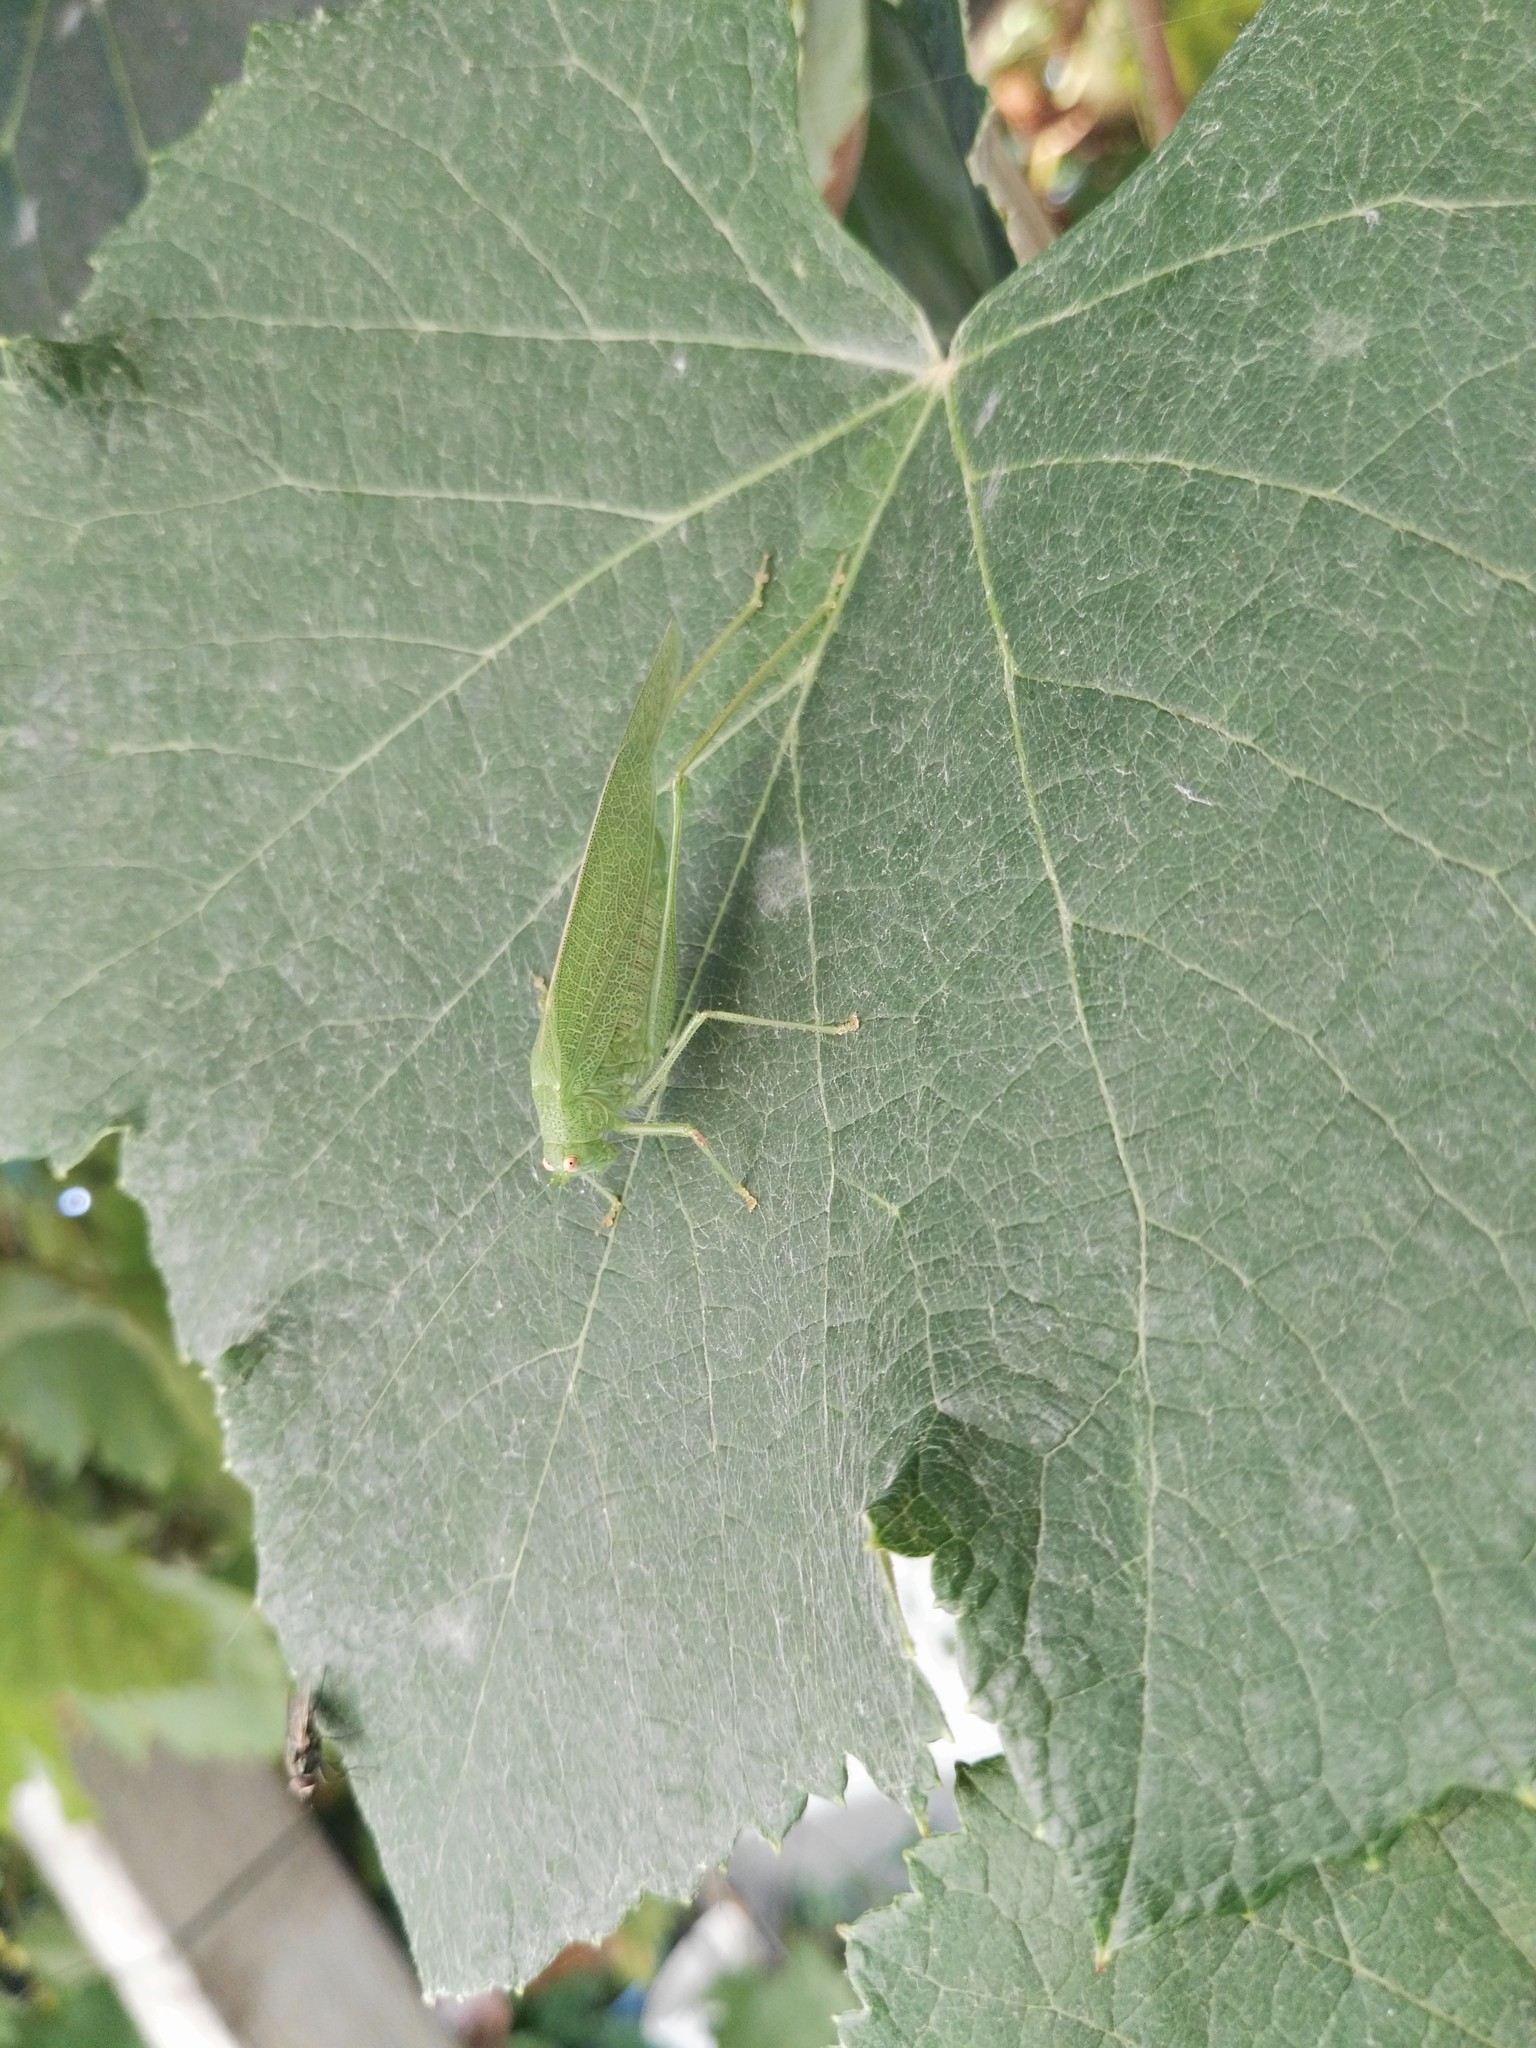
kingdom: Animalia
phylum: Arthropoda
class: Insecta
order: Orthoptera
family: Tettigoniidae
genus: Phaneroptera
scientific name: Phaneroptera nana
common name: Southern sickle bush-cricket
